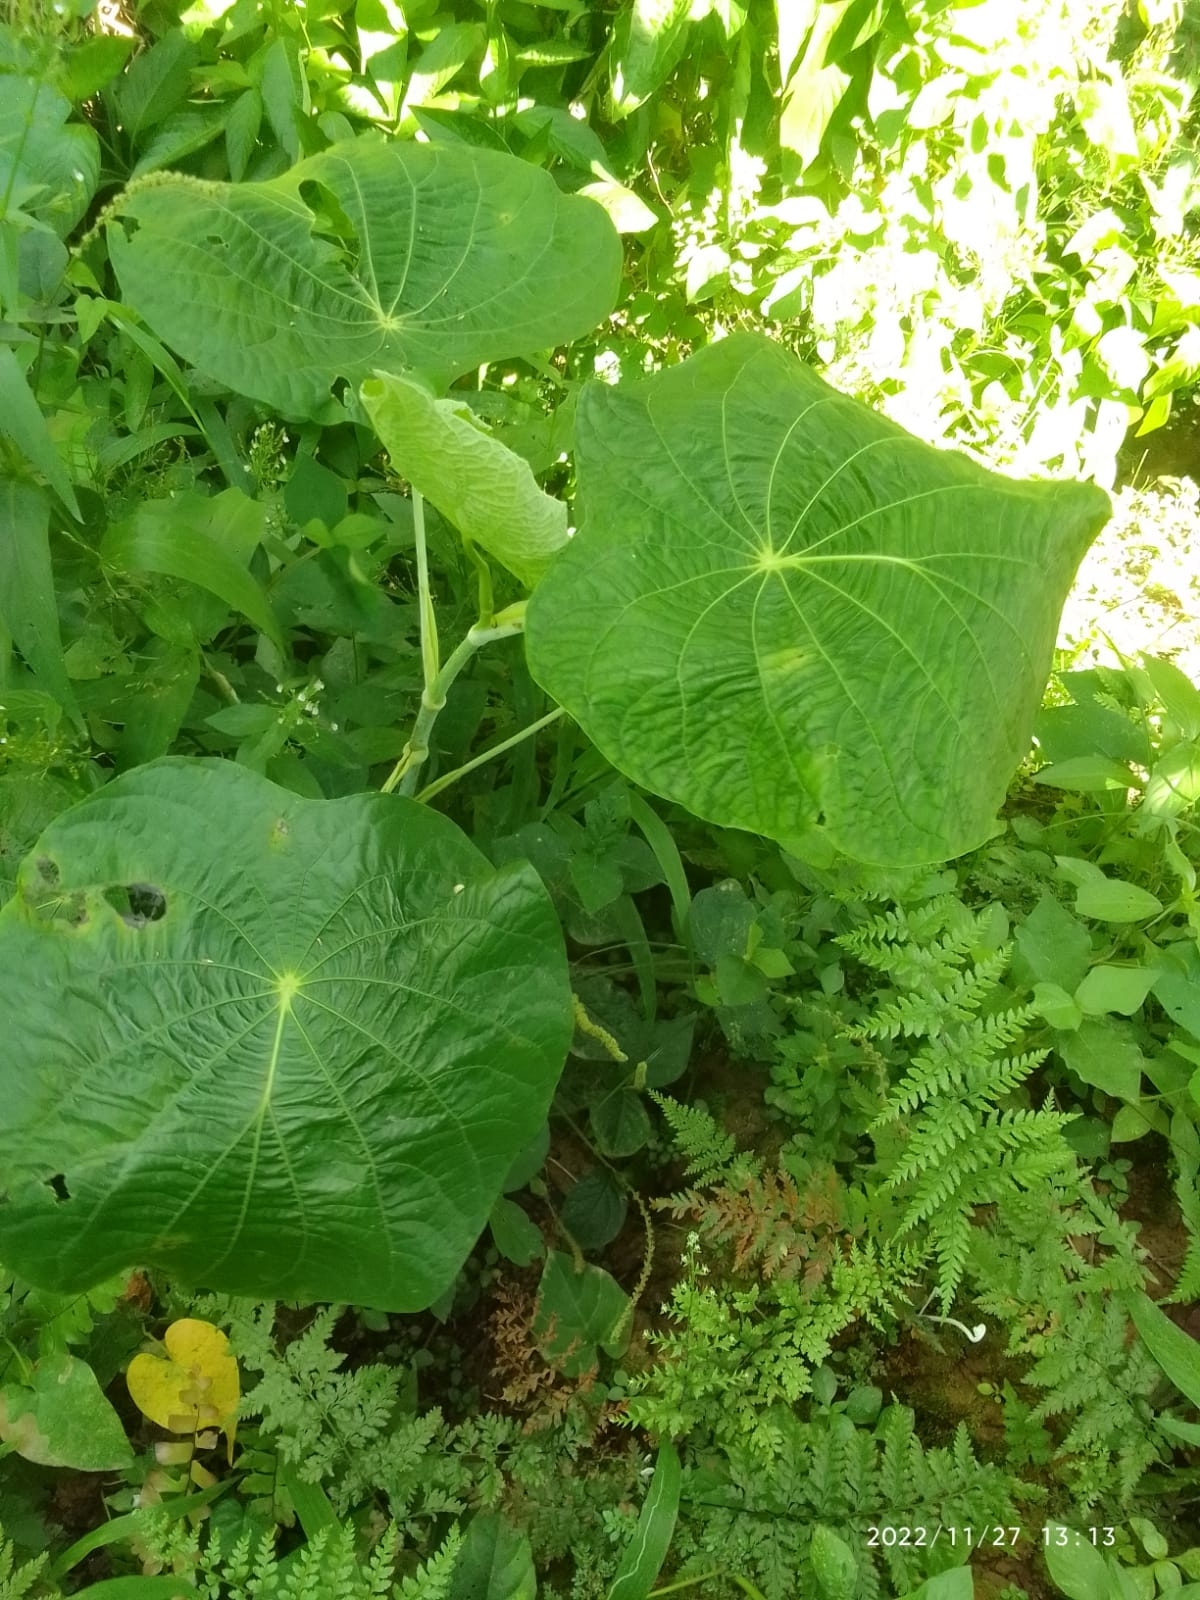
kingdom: Plantae
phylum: Tracheophyta
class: Magnoliopsida
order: Piperales
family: Piperaceae
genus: Piper
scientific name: Piper peltatum
